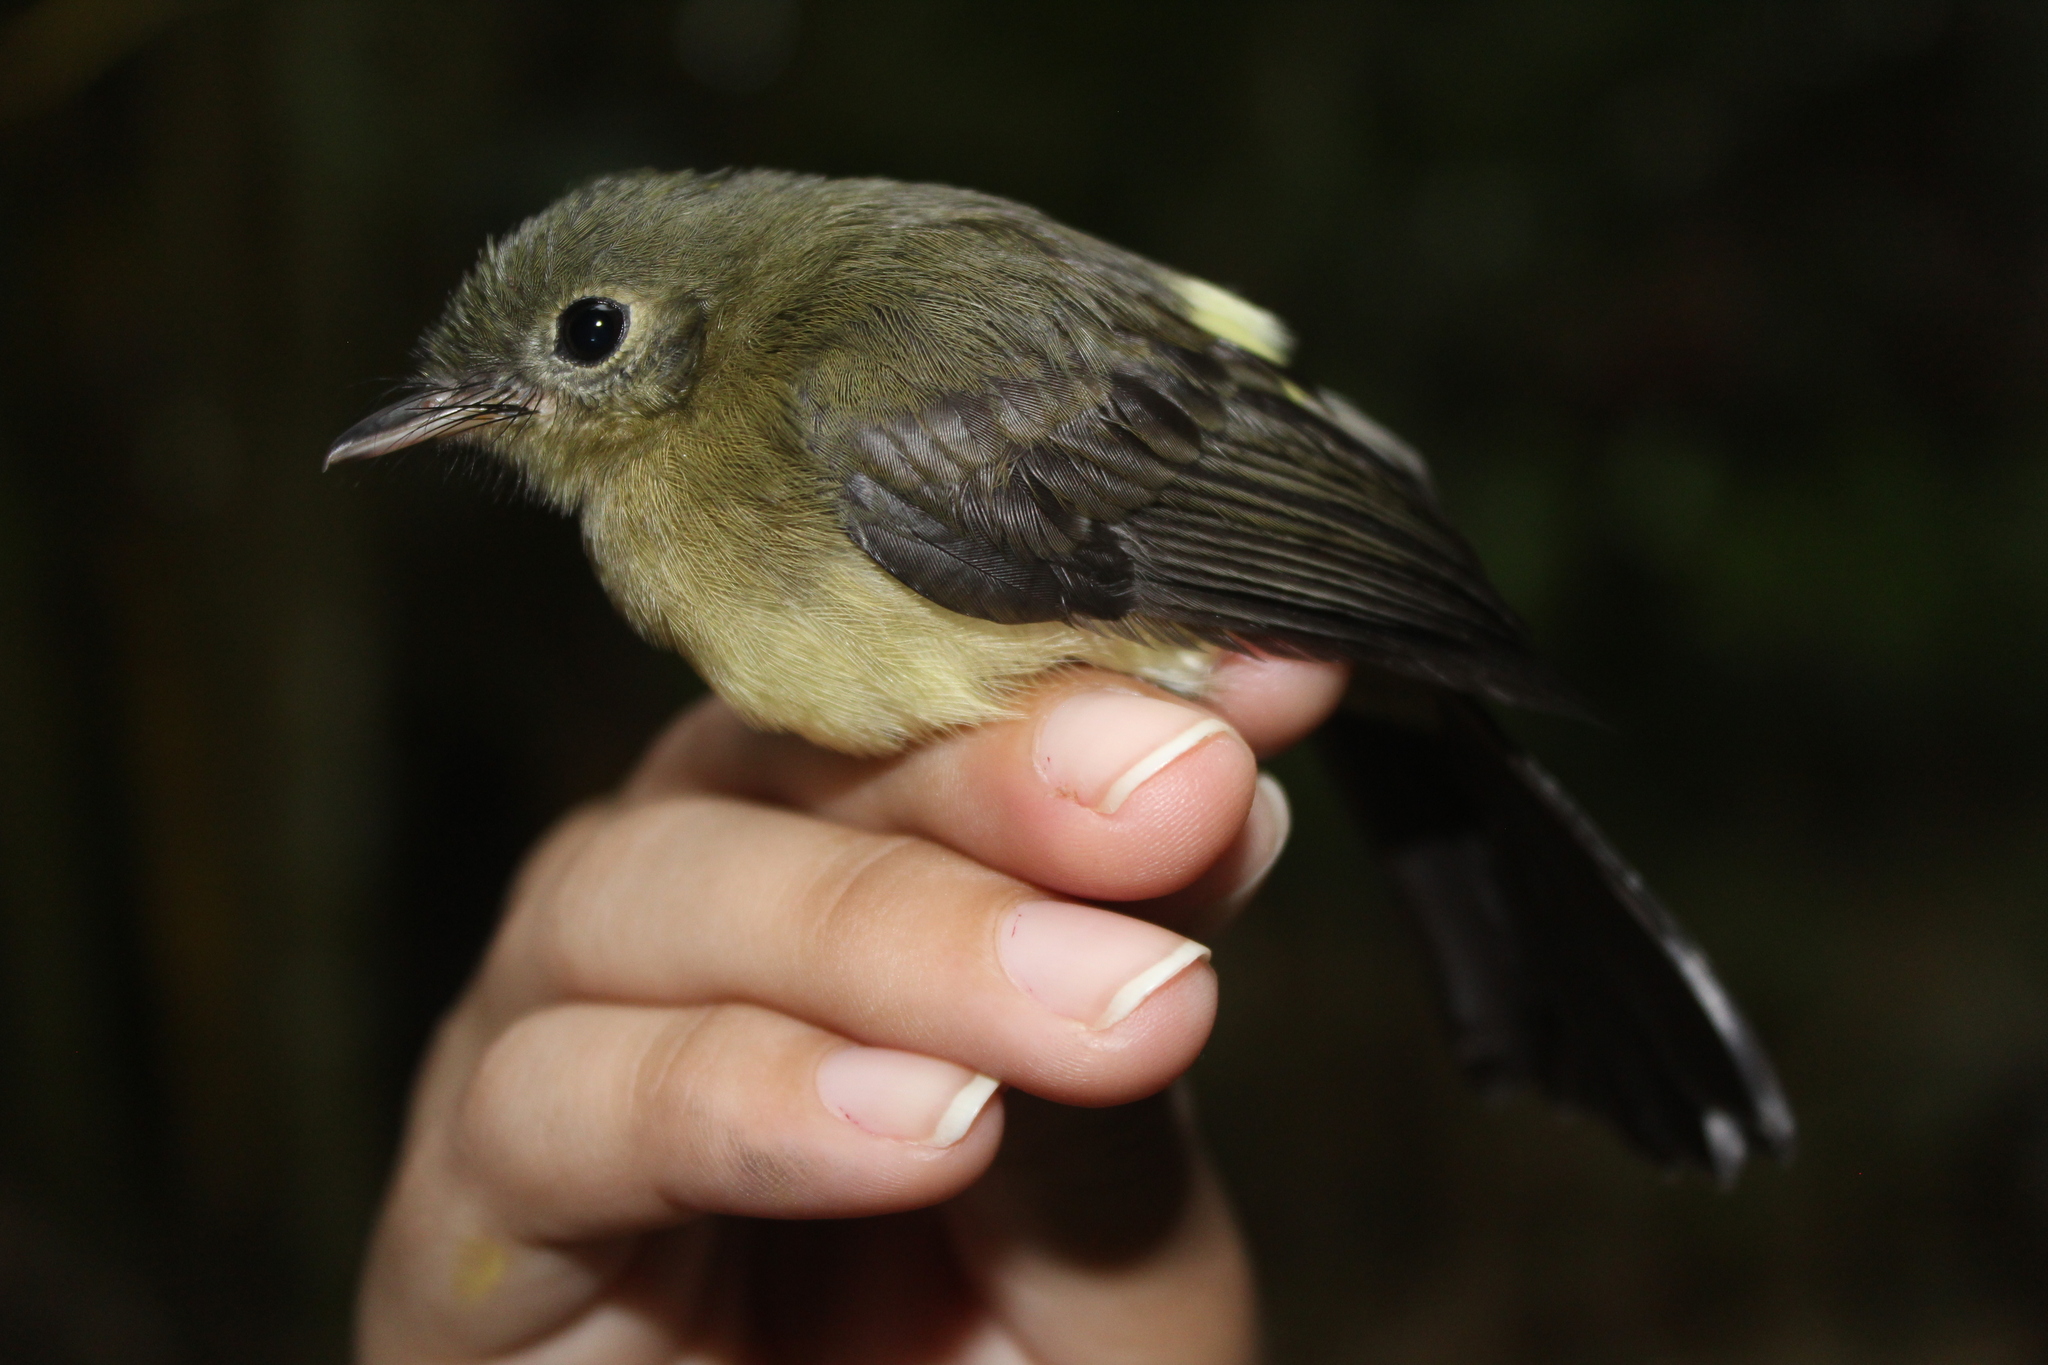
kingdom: Animalia
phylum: Chordata
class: Aves
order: Passeriformes
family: Tyrannidae
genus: Myiobius
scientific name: Myiobius atricaudus
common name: Black-tailed flycatcher
